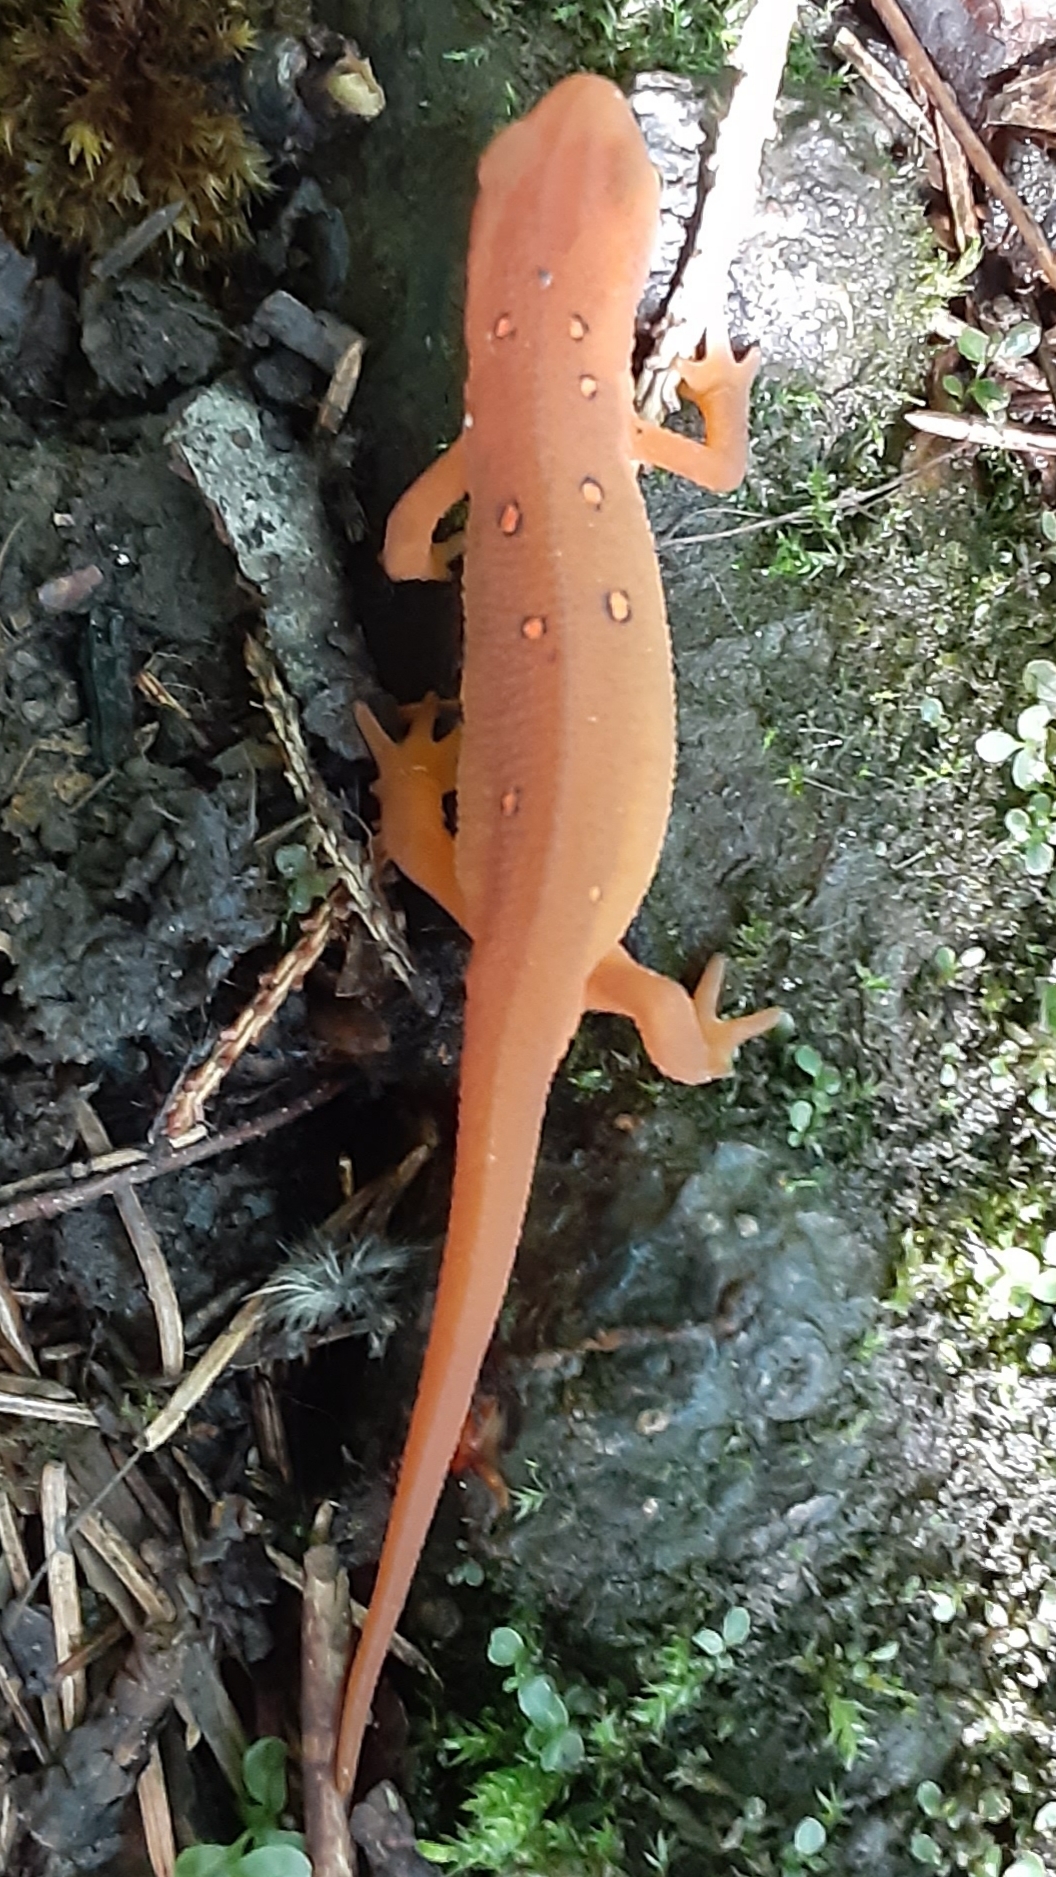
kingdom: Animalia
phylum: Chordata
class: Amphibia
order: Caudata
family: Salamandridae
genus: Notophthalmus
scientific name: Notophthalmus viridescens
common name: Eastern newt
